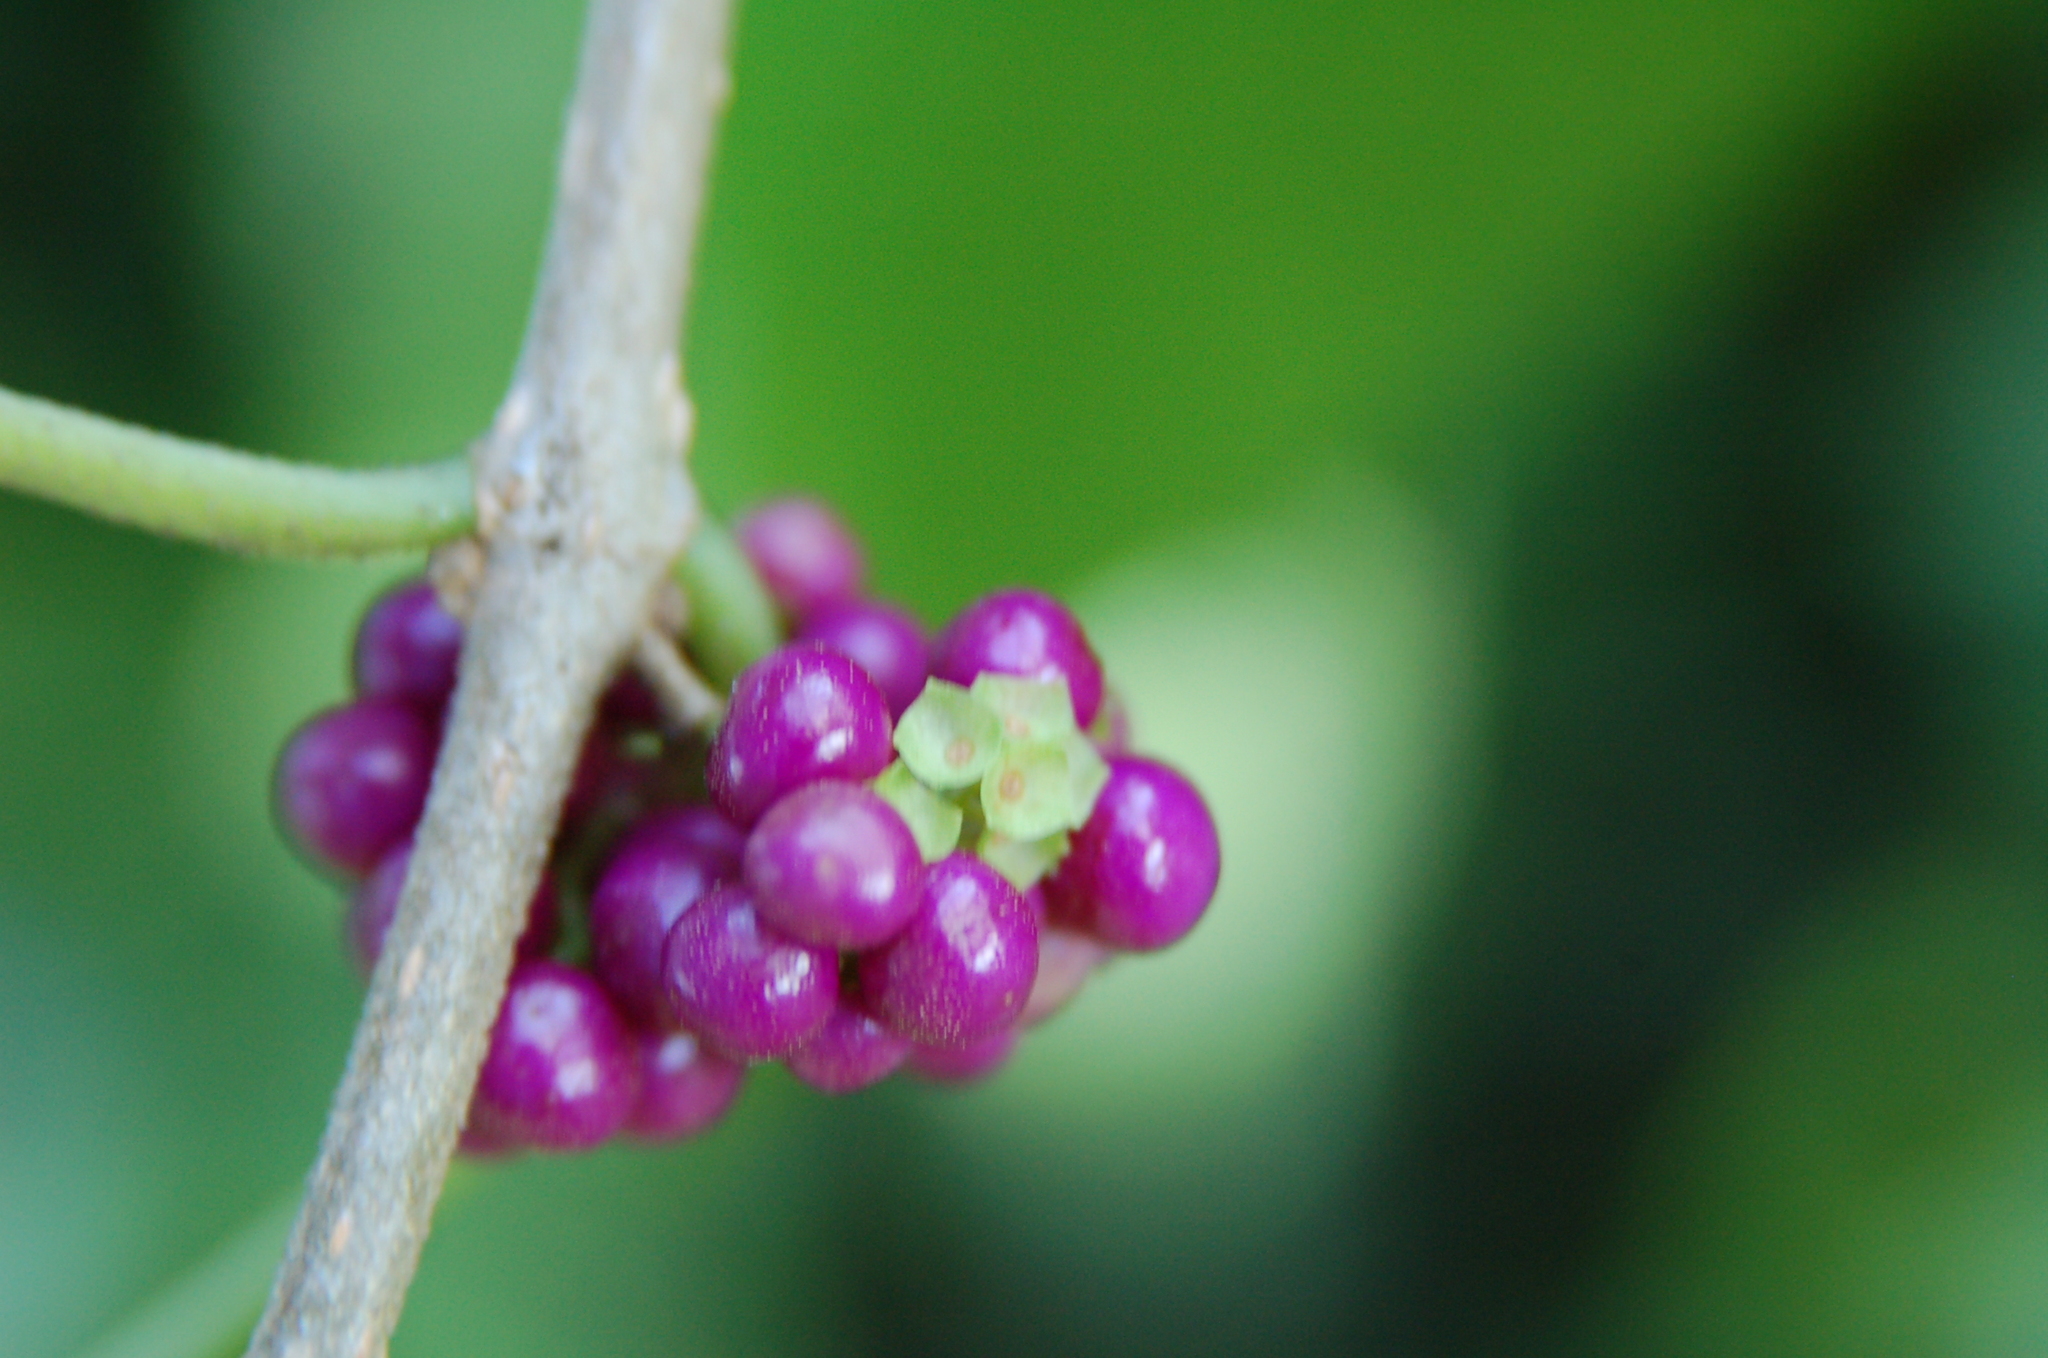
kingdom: Plantae
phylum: Tracheophyta
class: Magnoliopsida
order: Lamiales
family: Lamiaceae
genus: Callicarpa
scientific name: Callicarpa americana
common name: American beautyberry
